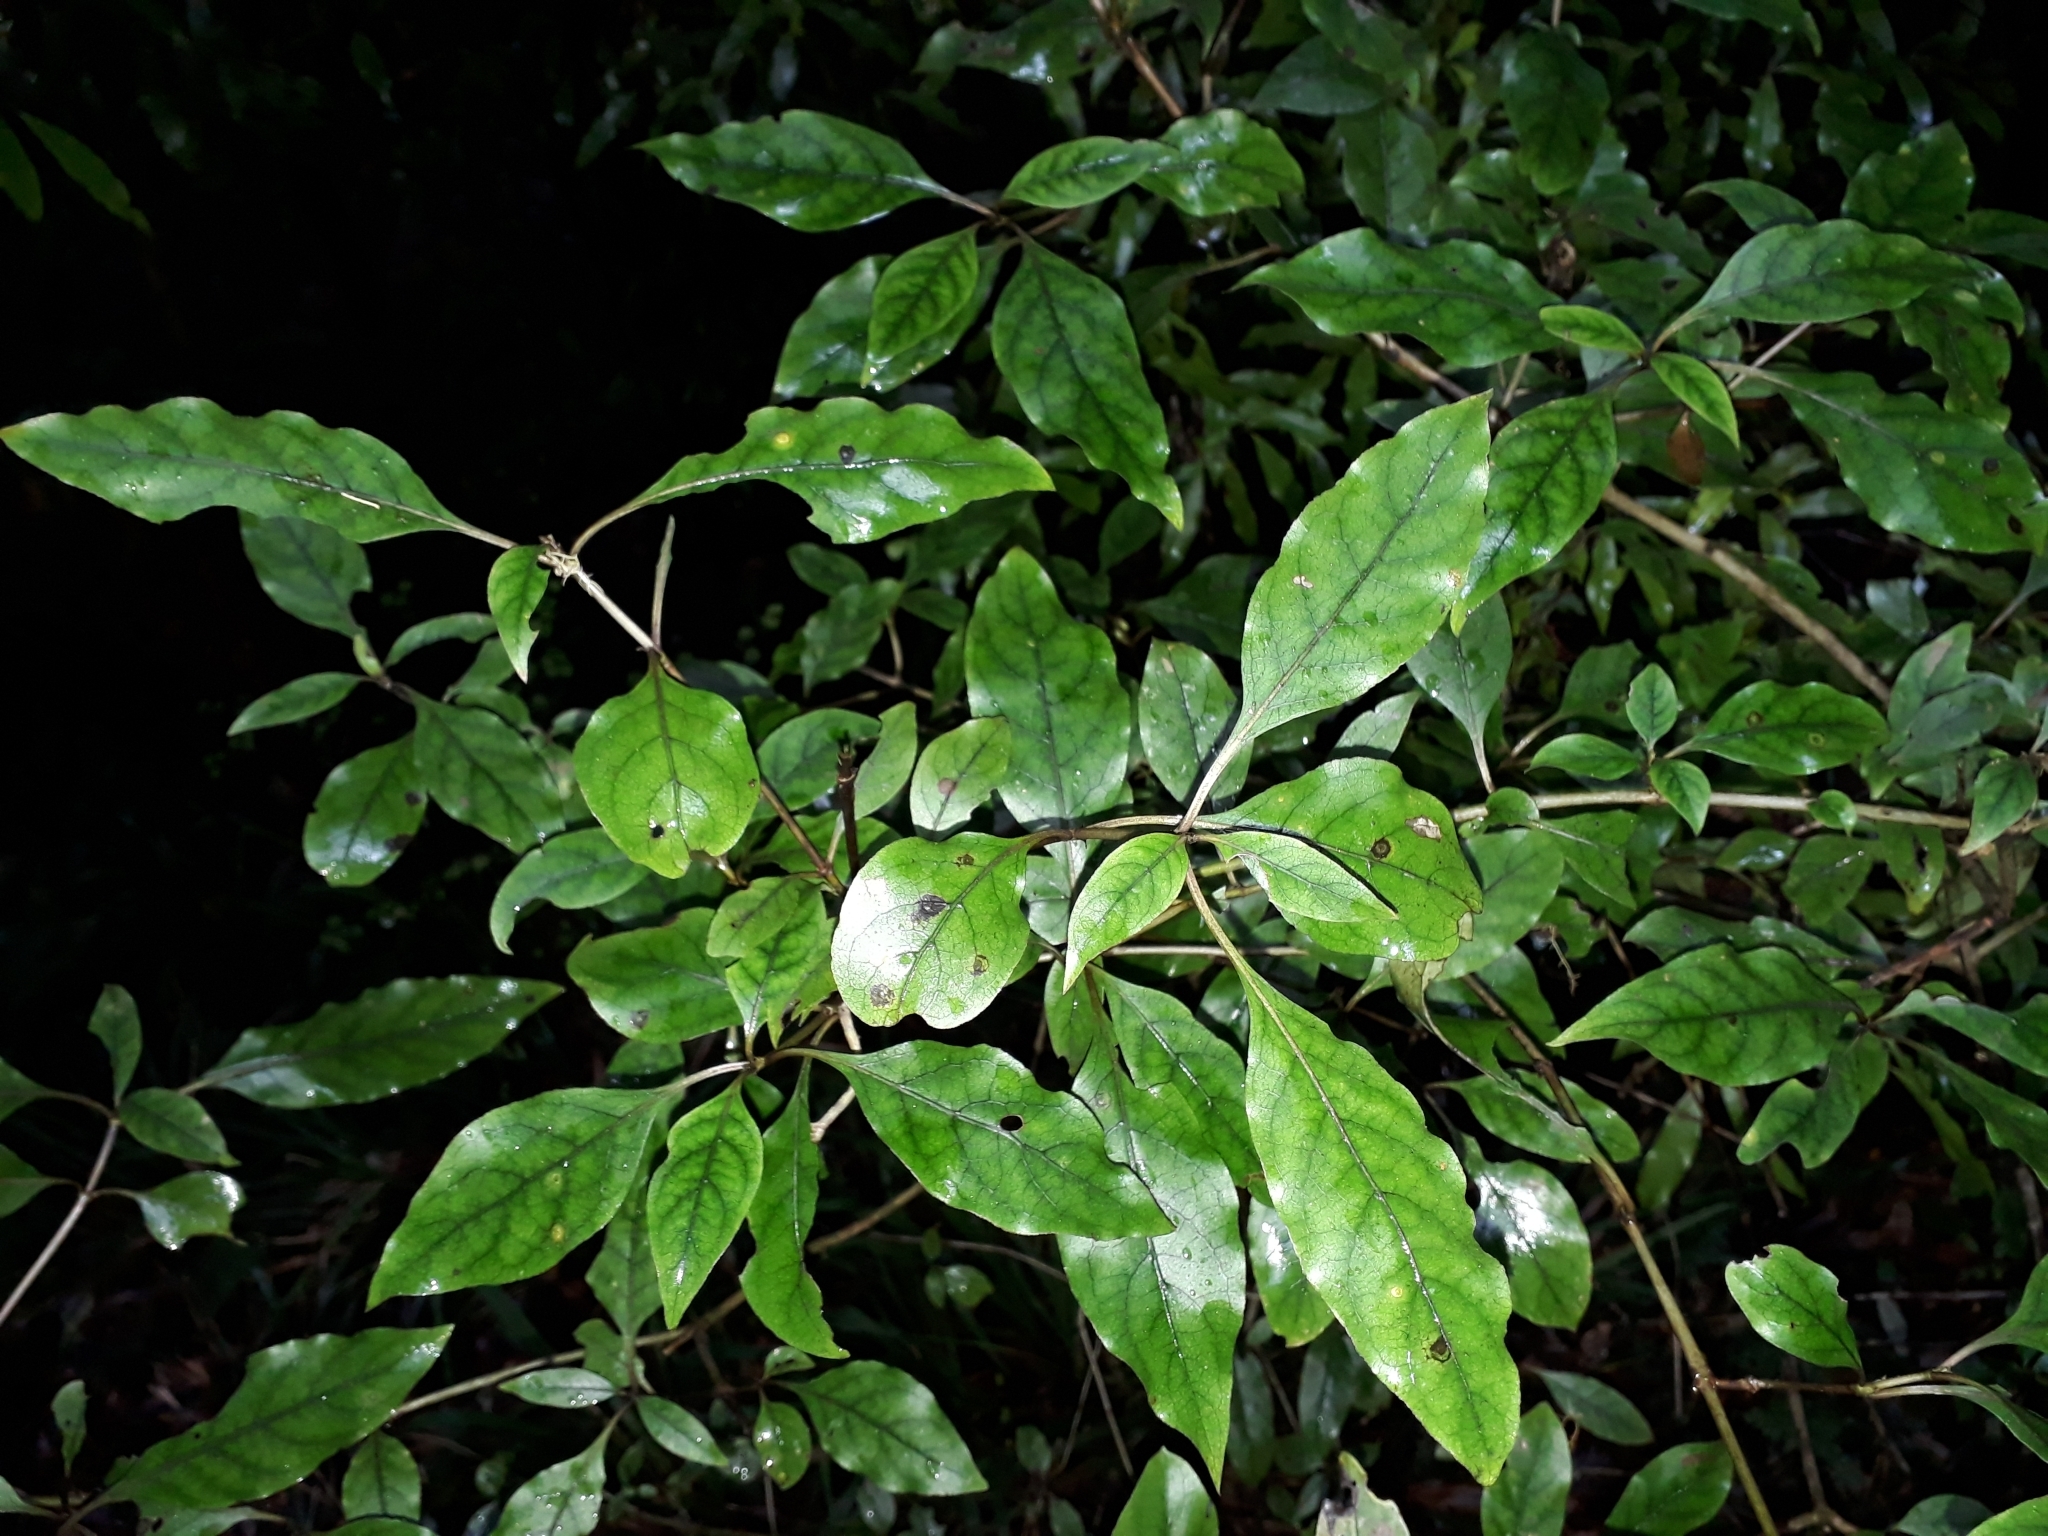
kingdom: Plantae
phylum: Tracheophyta
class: Magnoliopsida
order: Gentianales
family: Rubiaceae
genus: Coprosma
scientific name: Coprosma tenuifolia
